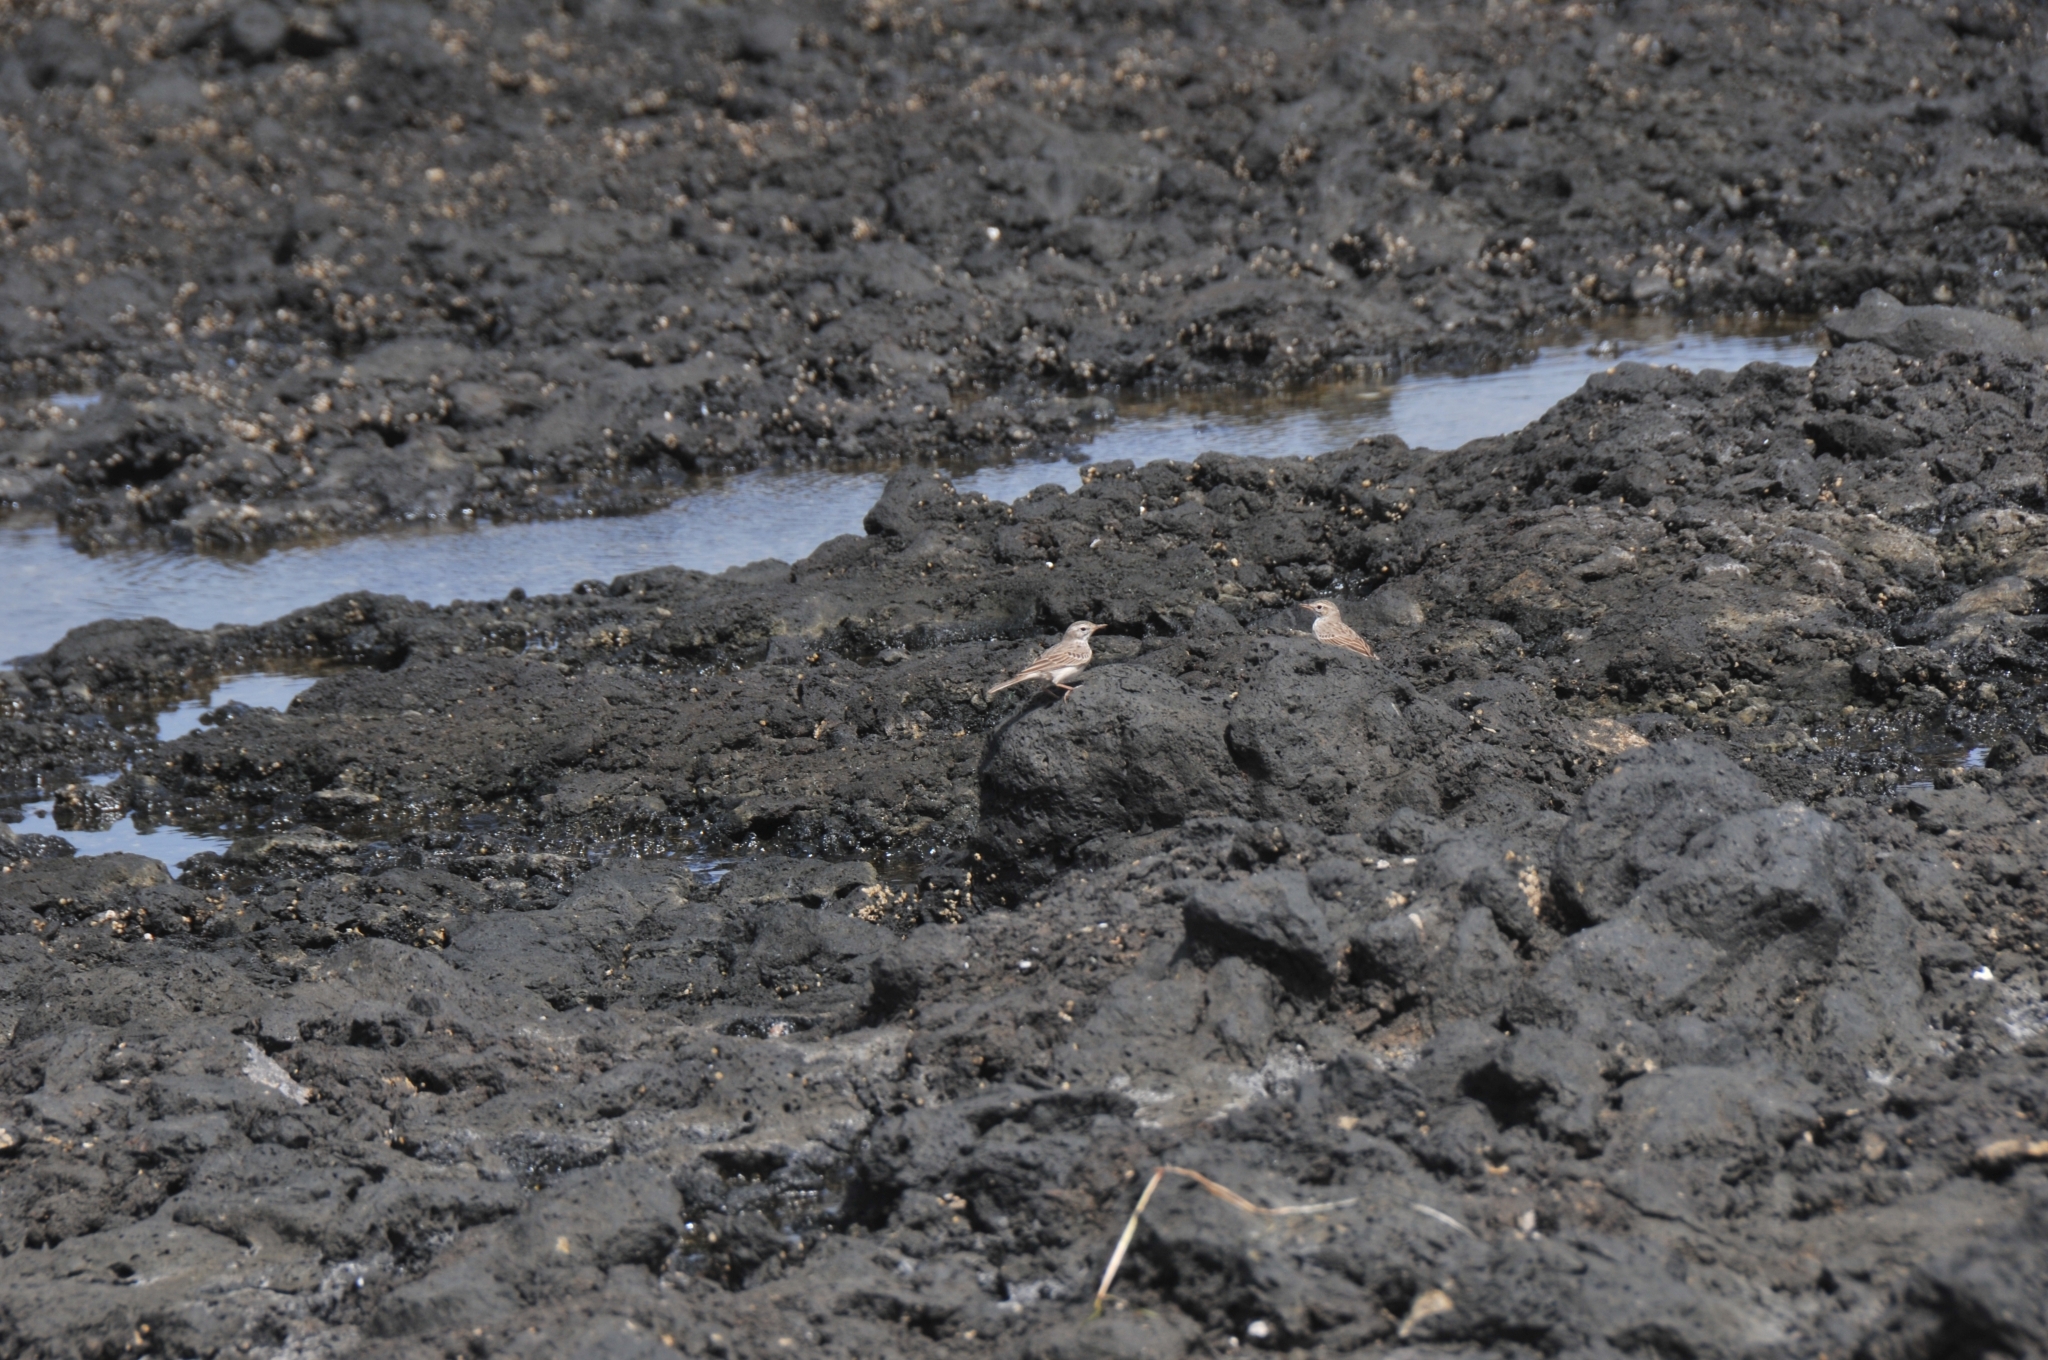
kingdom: Animalia
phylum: Chordata
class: Aves
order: Passeriformes
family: Motacillidae
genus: Anthus
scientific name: Anthus berthelotii
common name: Berthelot's pipit
